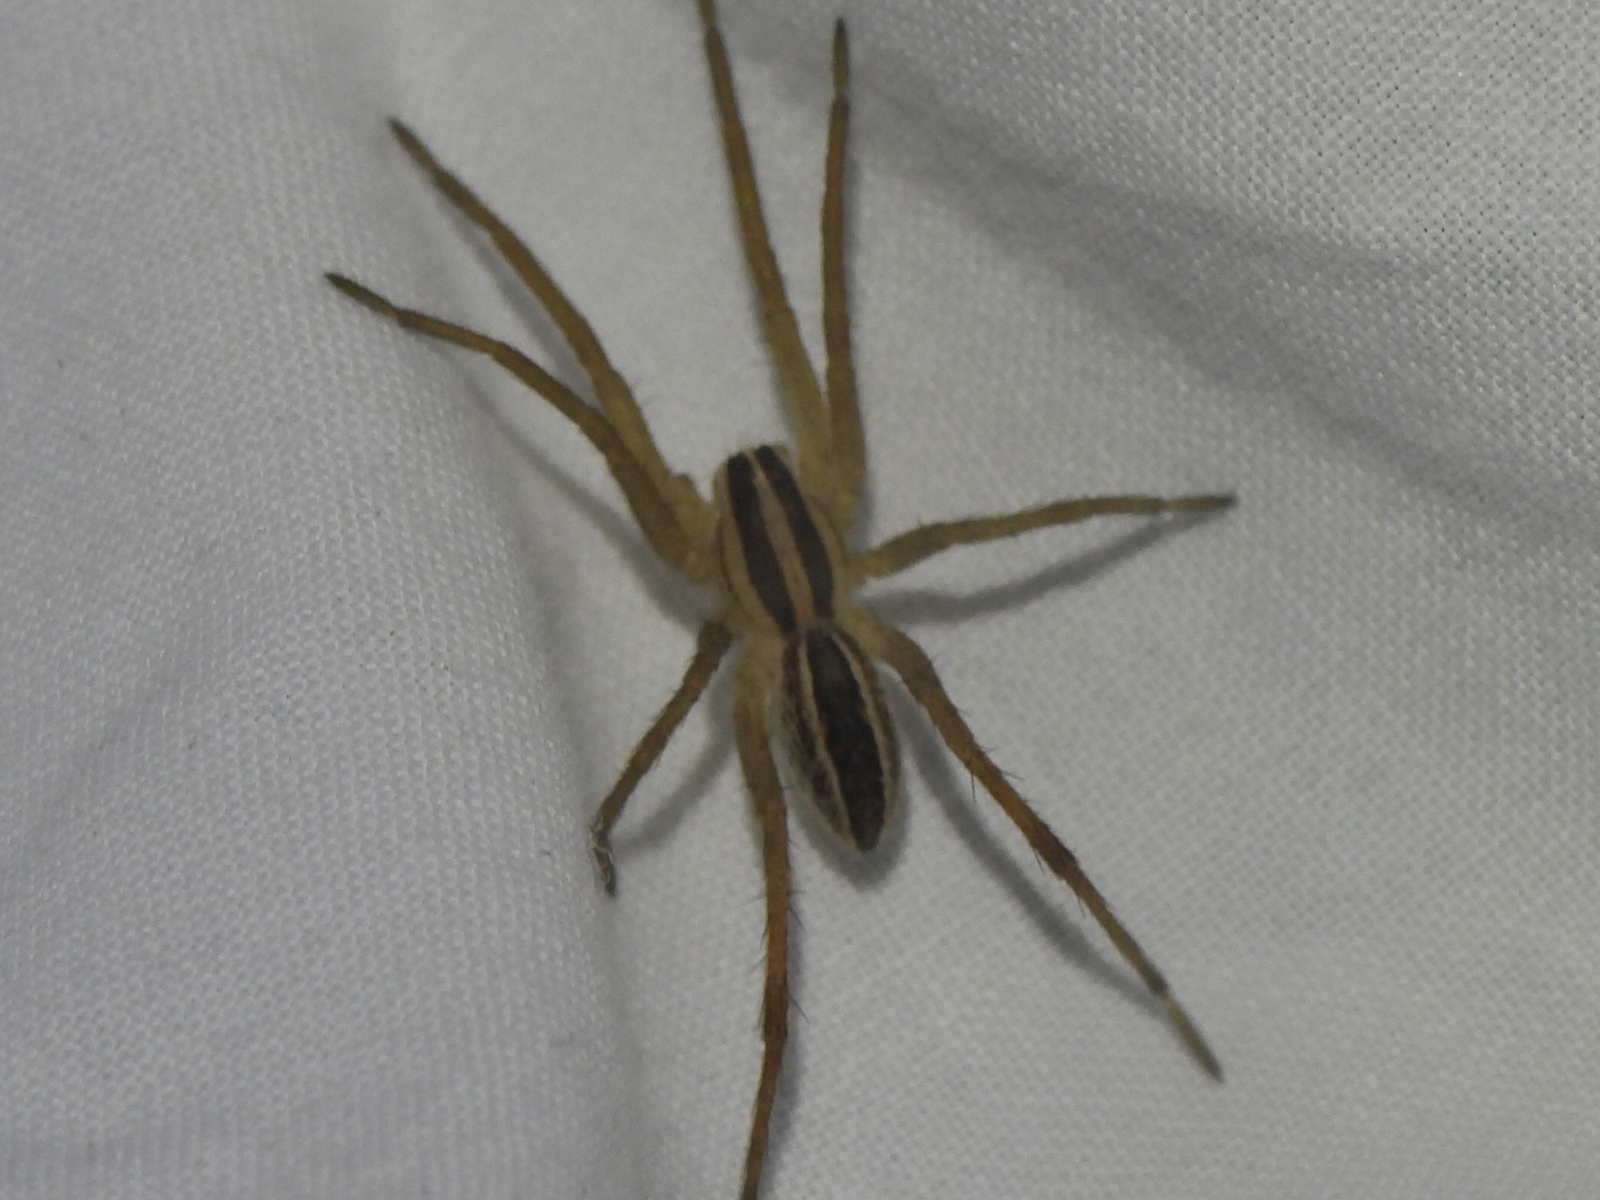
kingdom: Animalia
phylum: Arthropoda
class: Arachnida
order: Araneae
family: Lycosidae
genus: Rabidosa
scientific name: Rabidosa rabida
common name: Rabid wolf spider
